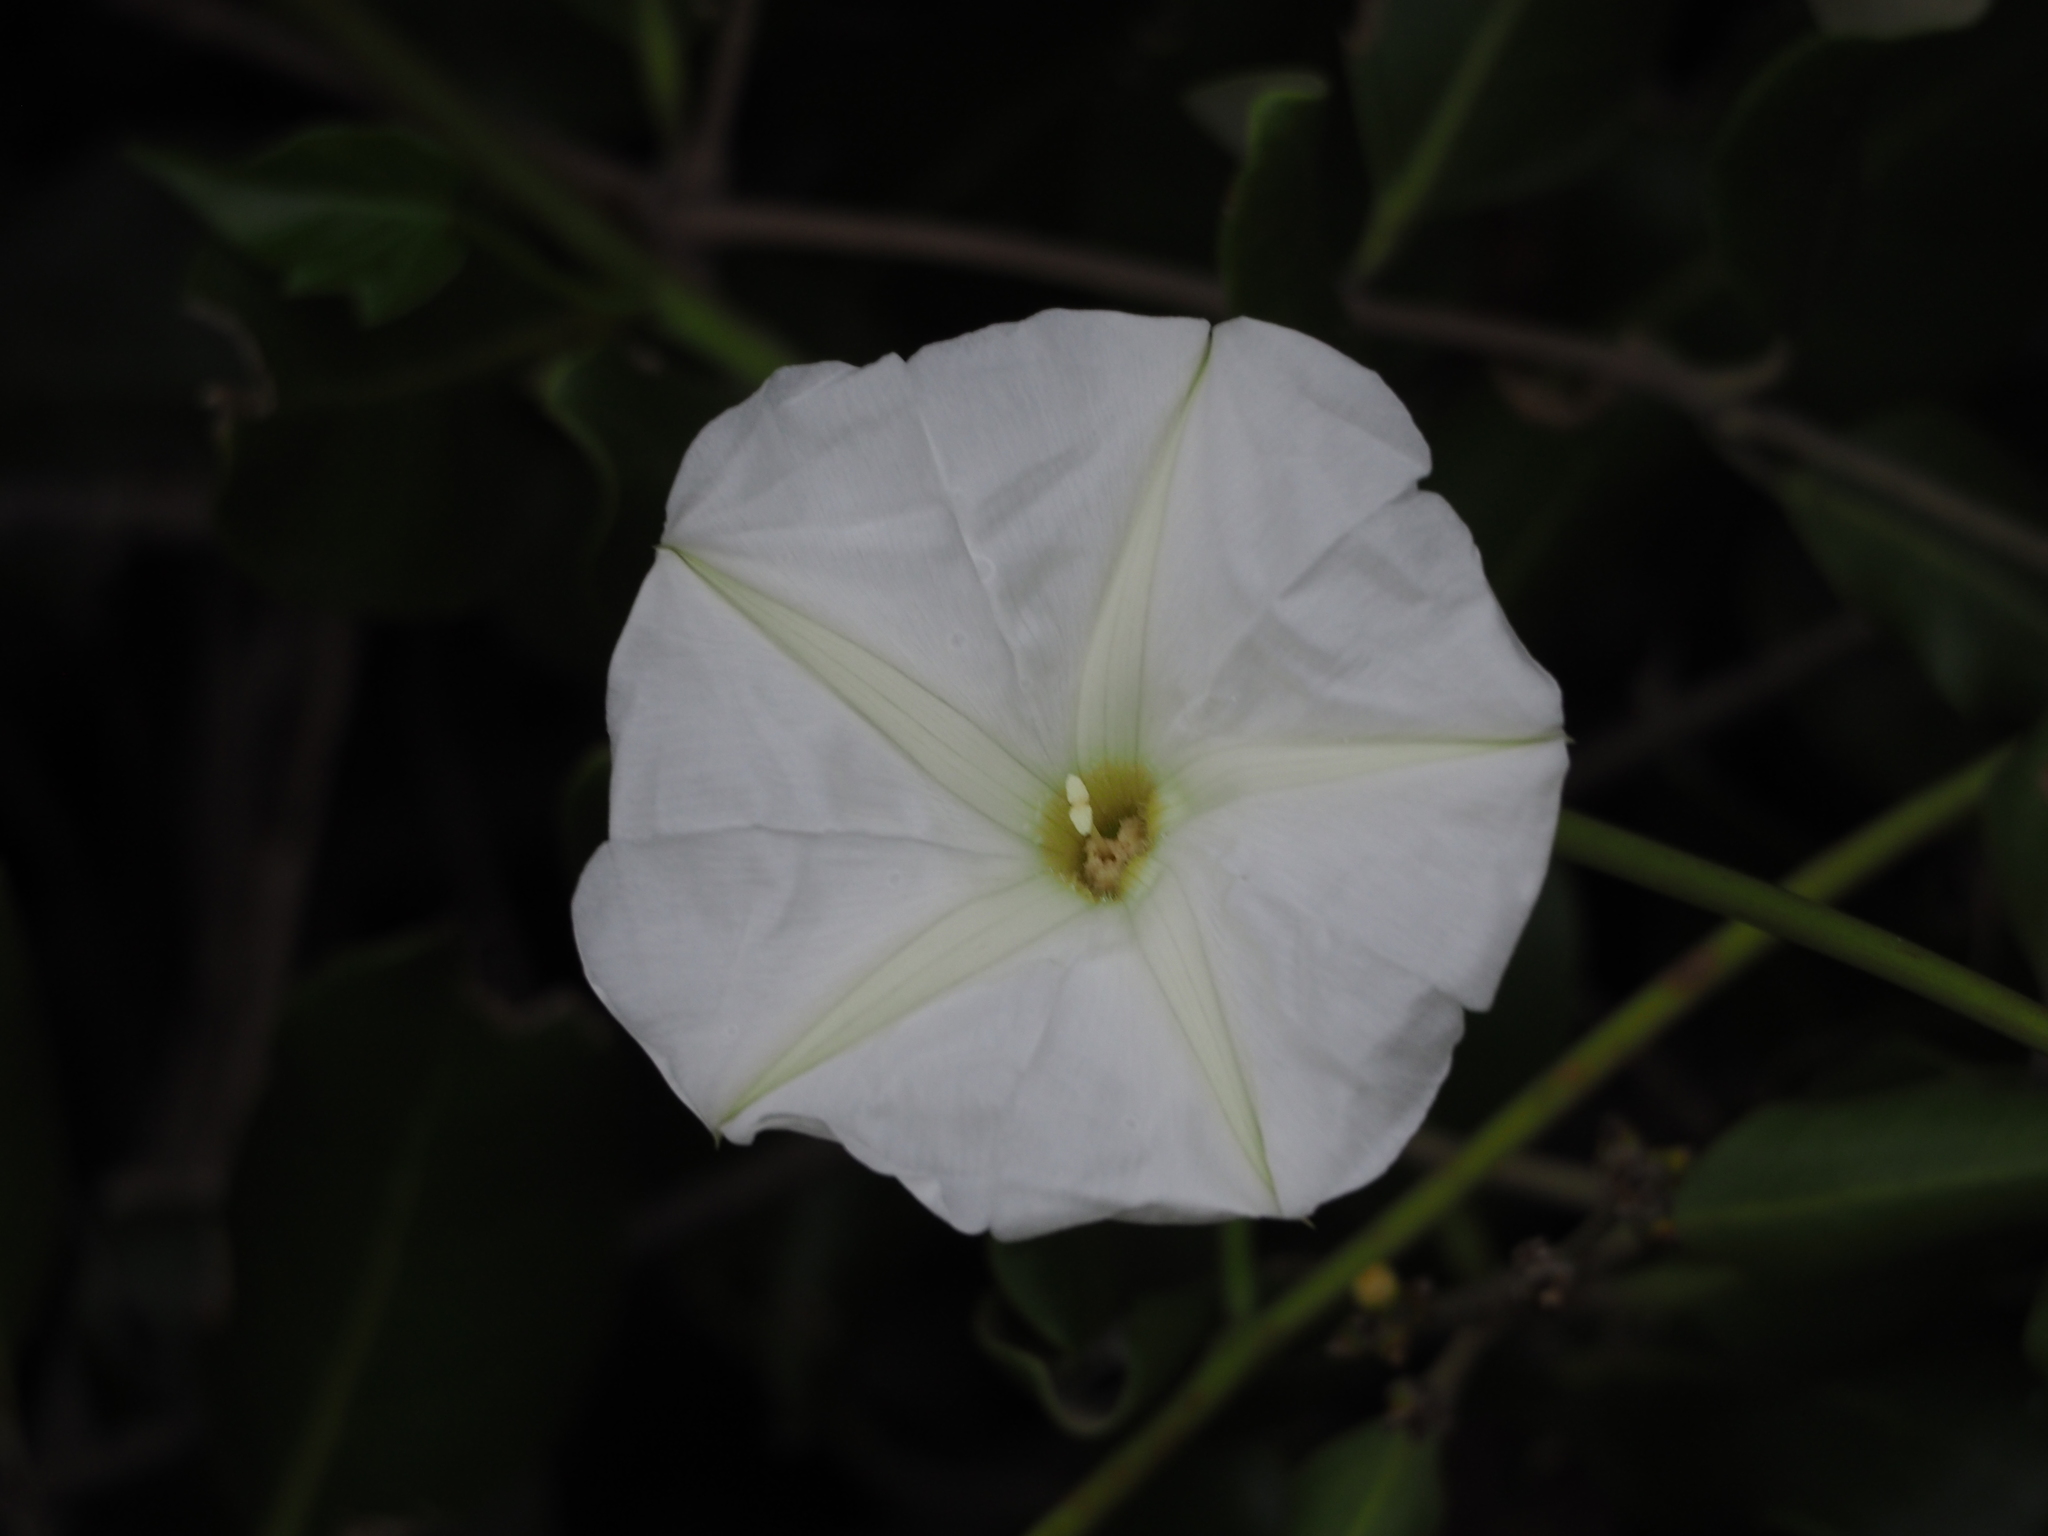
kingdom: Plantae
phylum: Tracheophyta
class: Magnoliopsida
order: Solanales
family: Convolvulaceae
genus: Ipomoea
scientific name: Ipomoea violacea
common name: Beach moonflower
